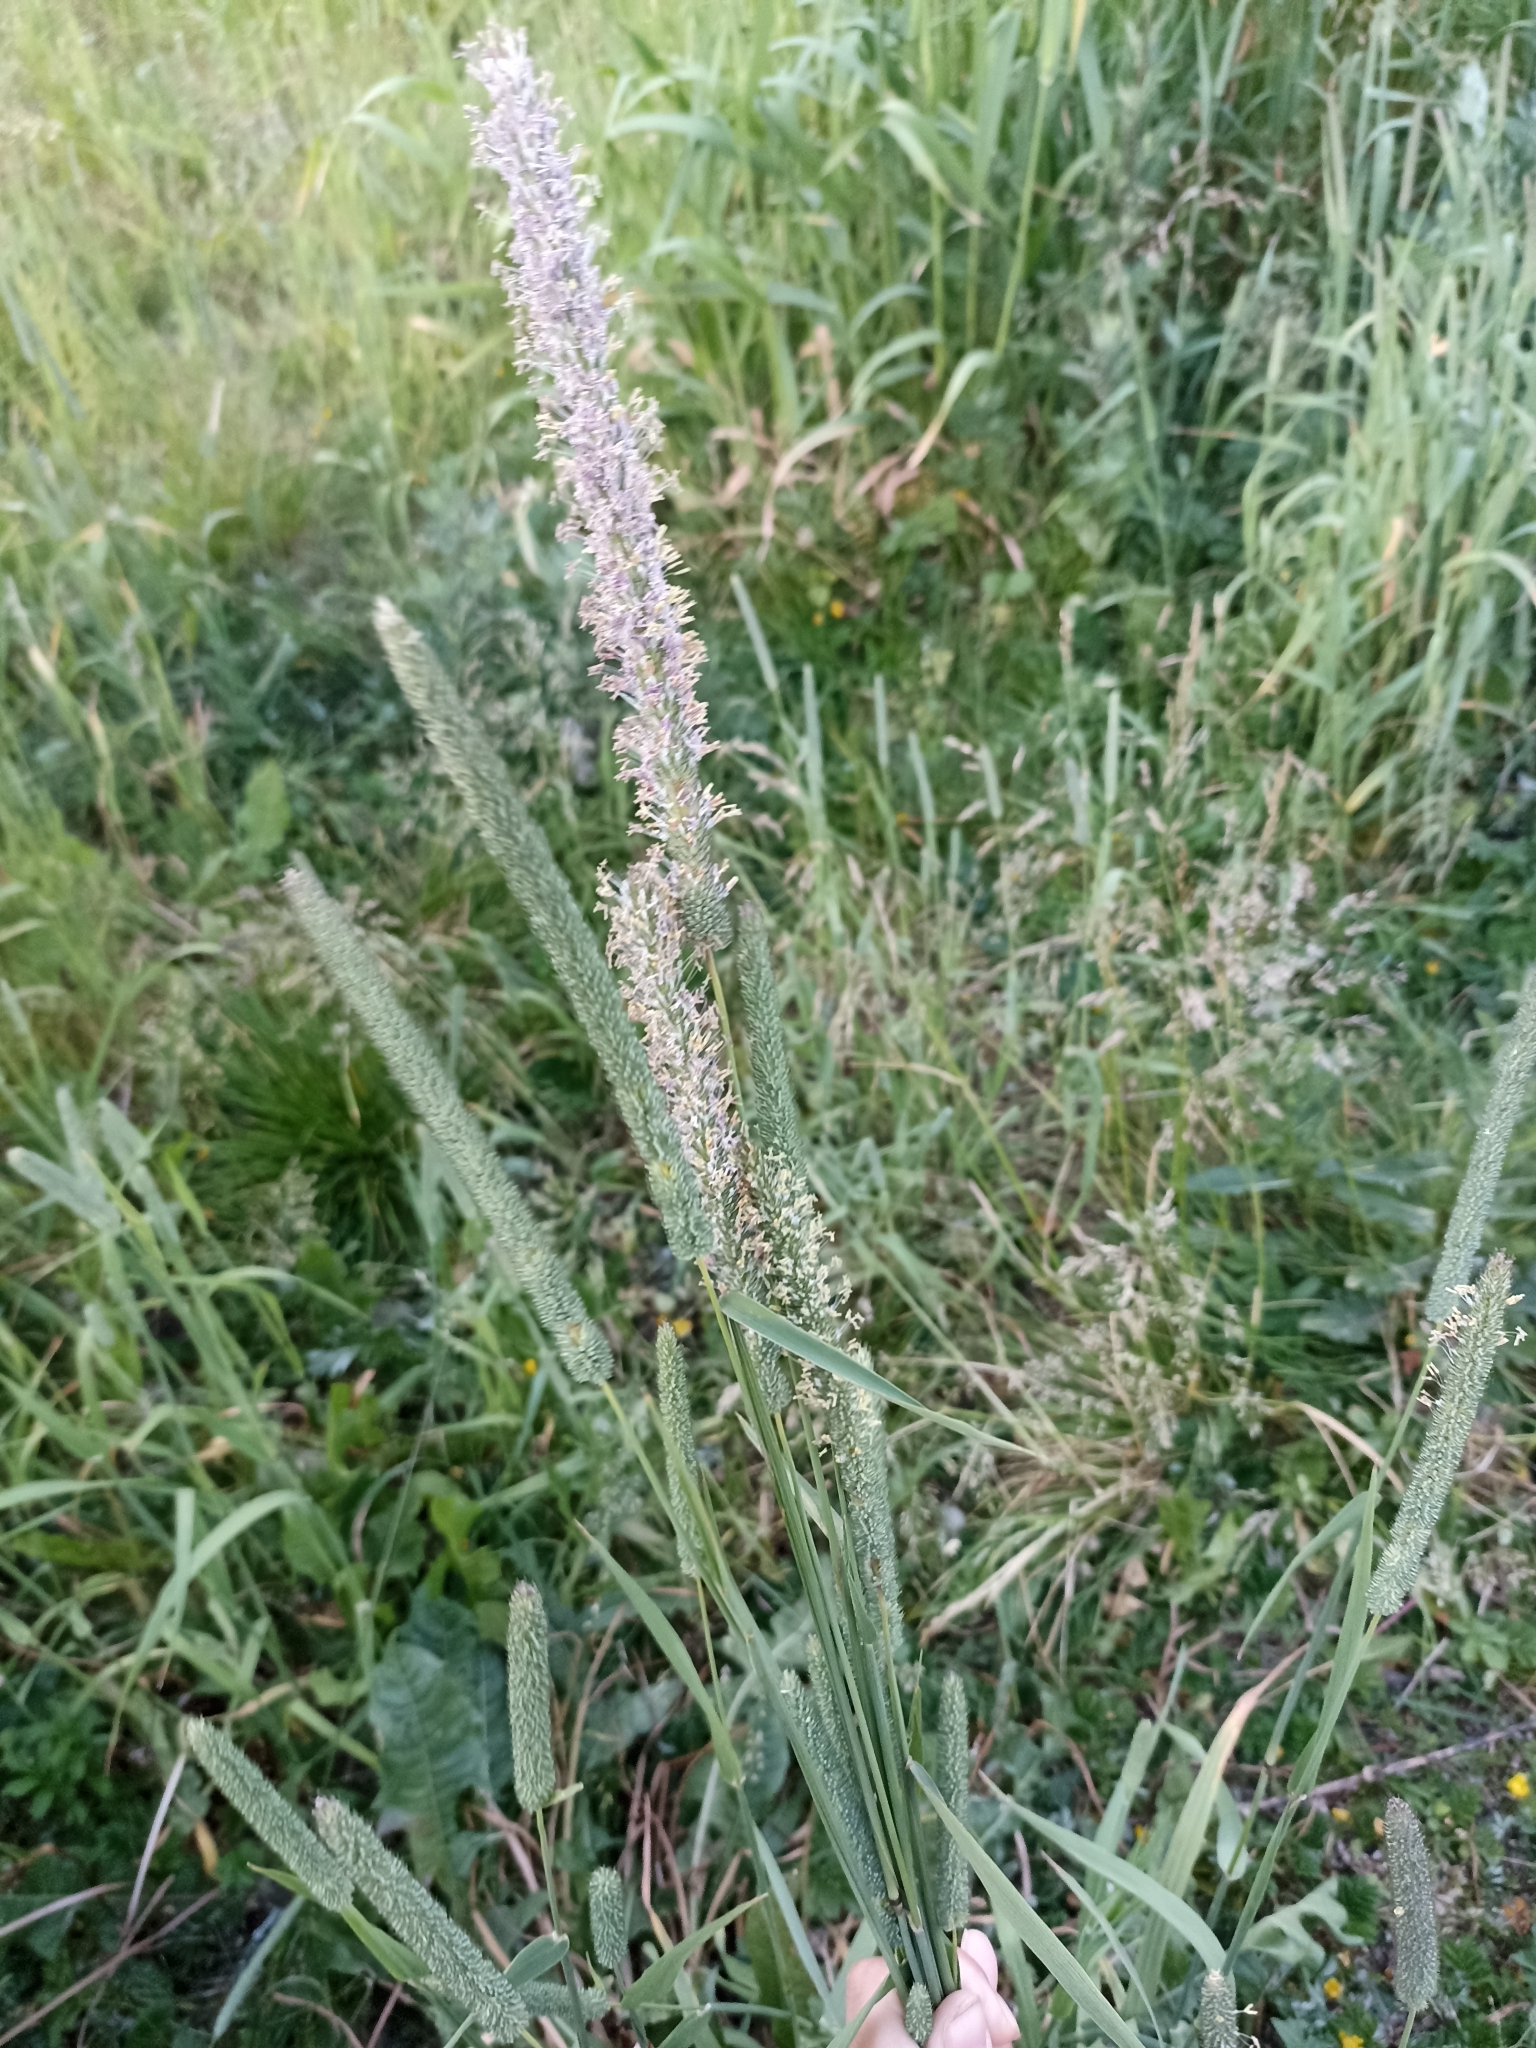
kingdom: Plantae
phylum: Tracheophyta
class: Liliopsida
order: Poales
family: Poaceae
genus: Phleum
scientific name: Phleum pratense
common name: Timothy grass
